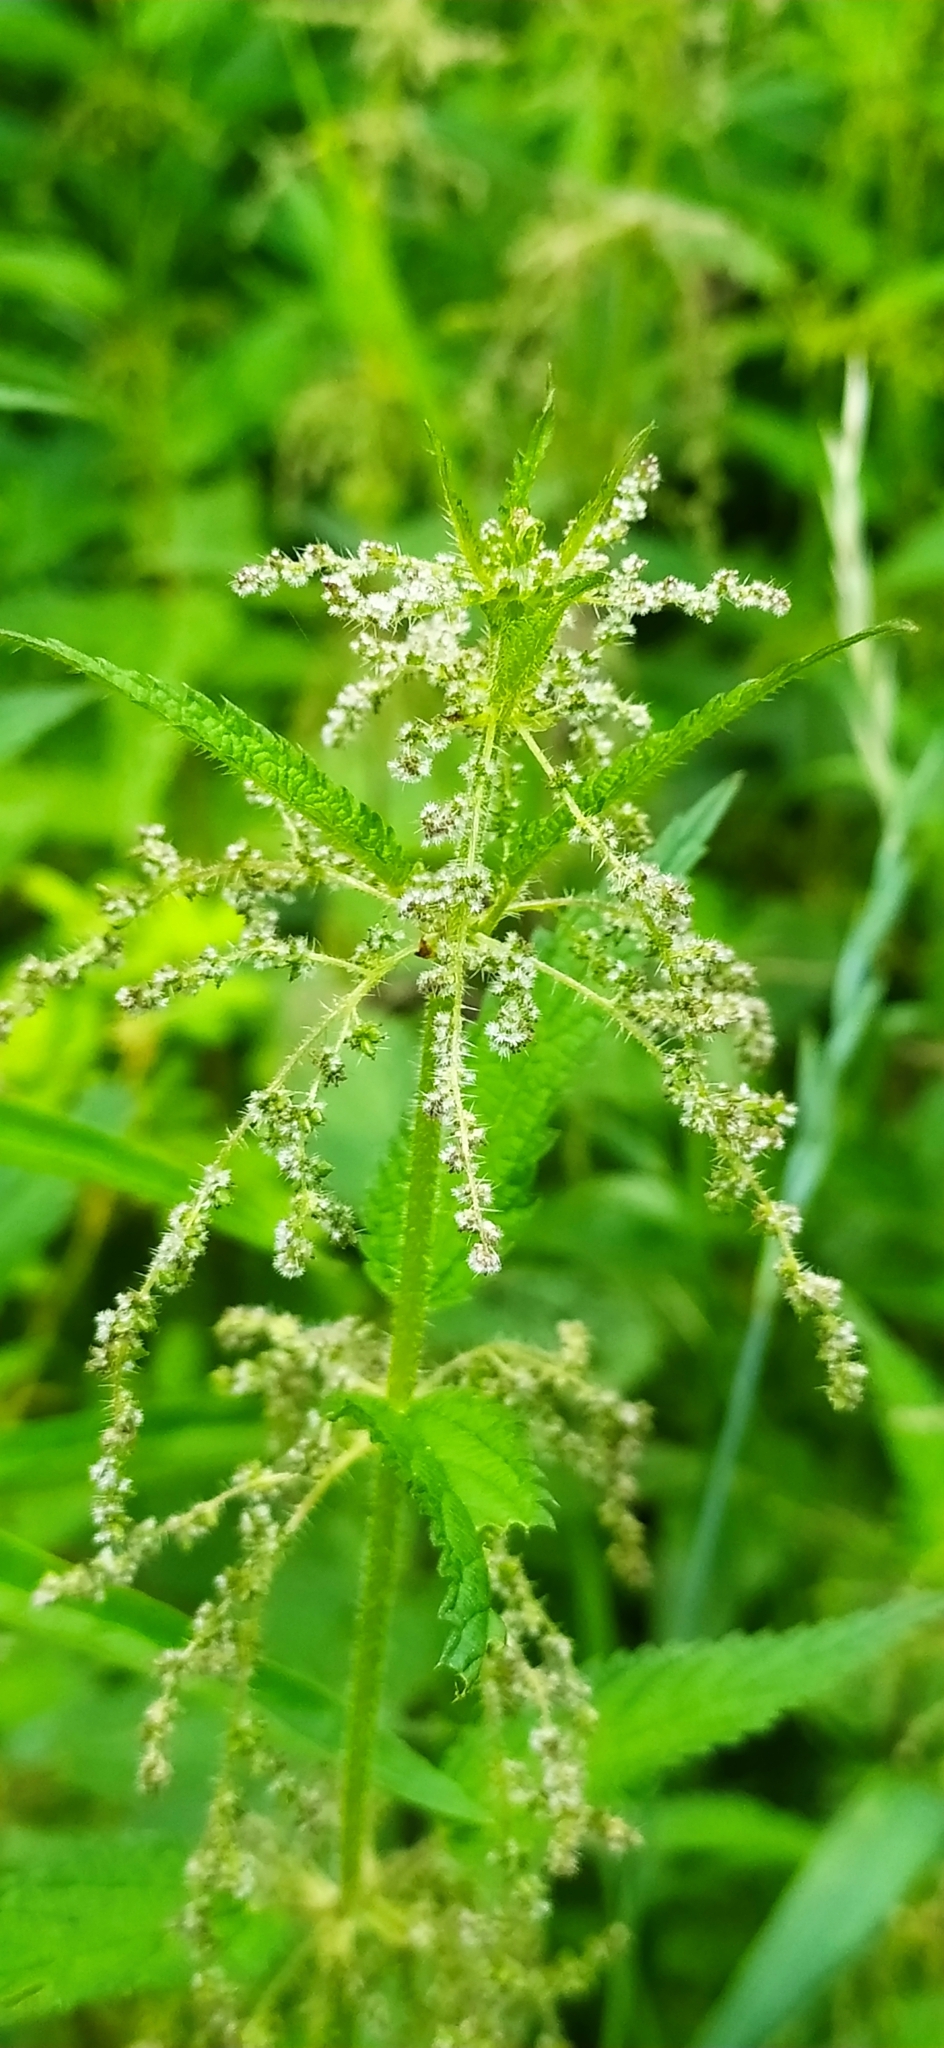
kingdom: Plantae
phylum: Tracheophyta
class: Magnoliopsida
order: Rosales
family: Urticaceae
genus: Urtica
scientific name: Urtica dioica
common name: Common nettle
